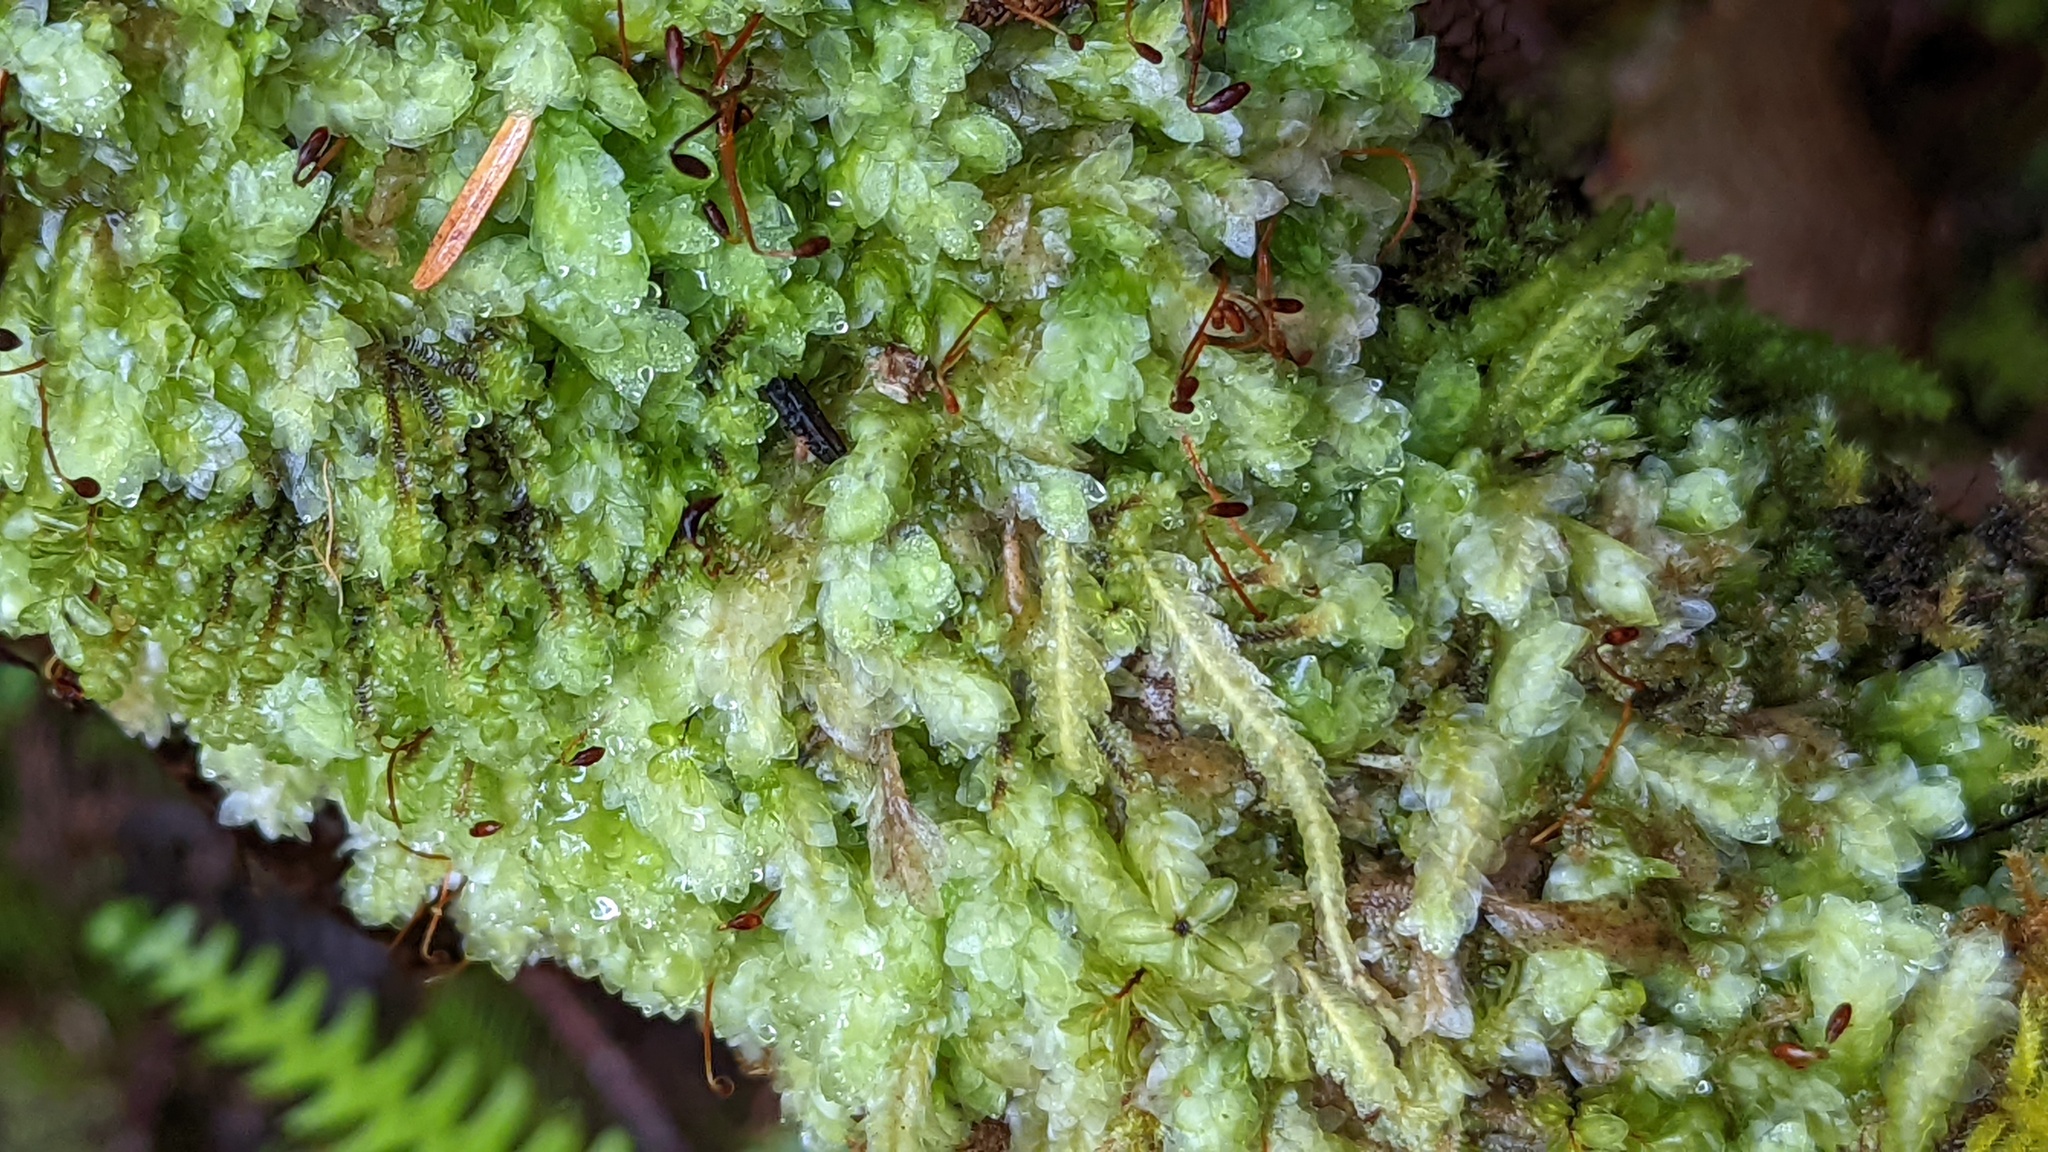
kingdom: Plantae
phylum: Bryophyta
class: Bryopsida
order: Hookeriales
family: Hookeriaceae
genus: Hookeria
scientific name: Hookeria lucens
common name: Shining hookeria
